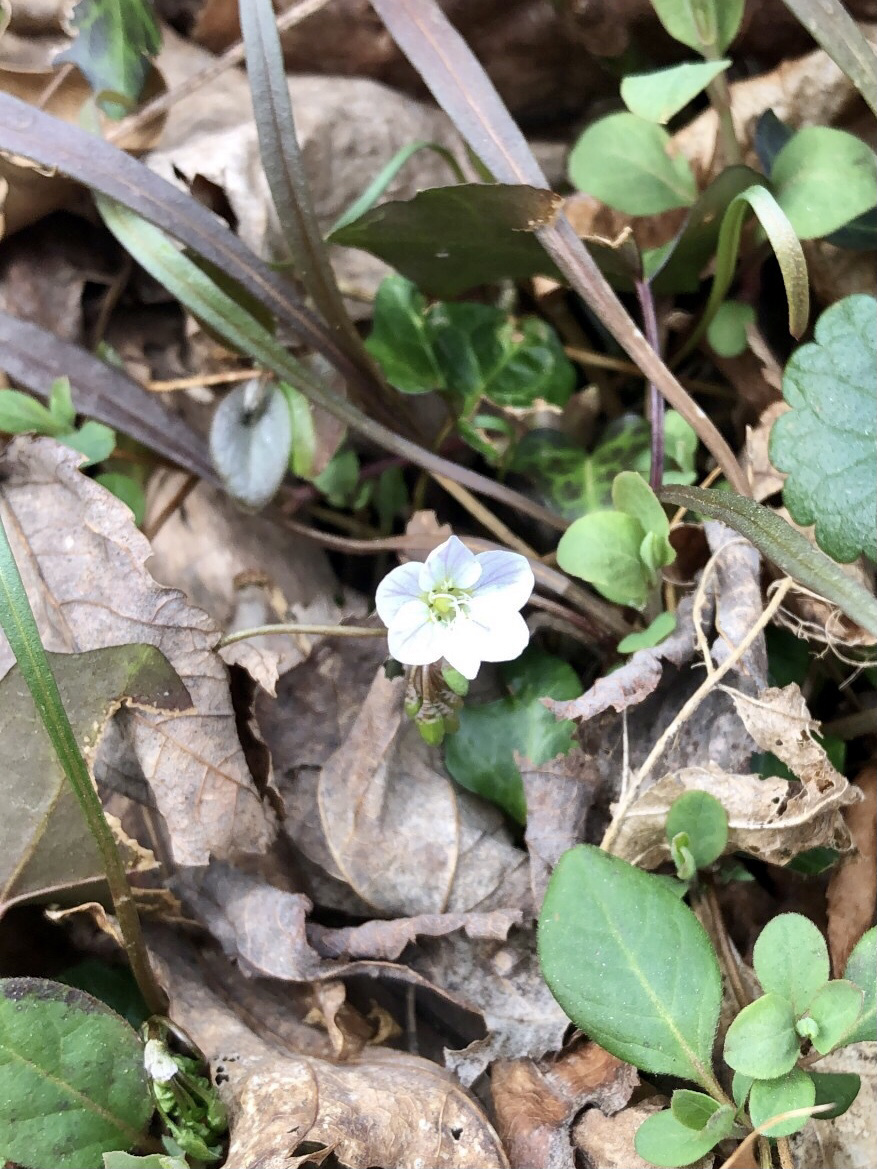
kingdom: Plantae
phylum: Tracheophyta
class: Magnoliopsida
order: Caryophyllales
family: Montiaceae
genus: Claytonia
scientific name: Claytonia virginica
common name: Virginia springbeauty
